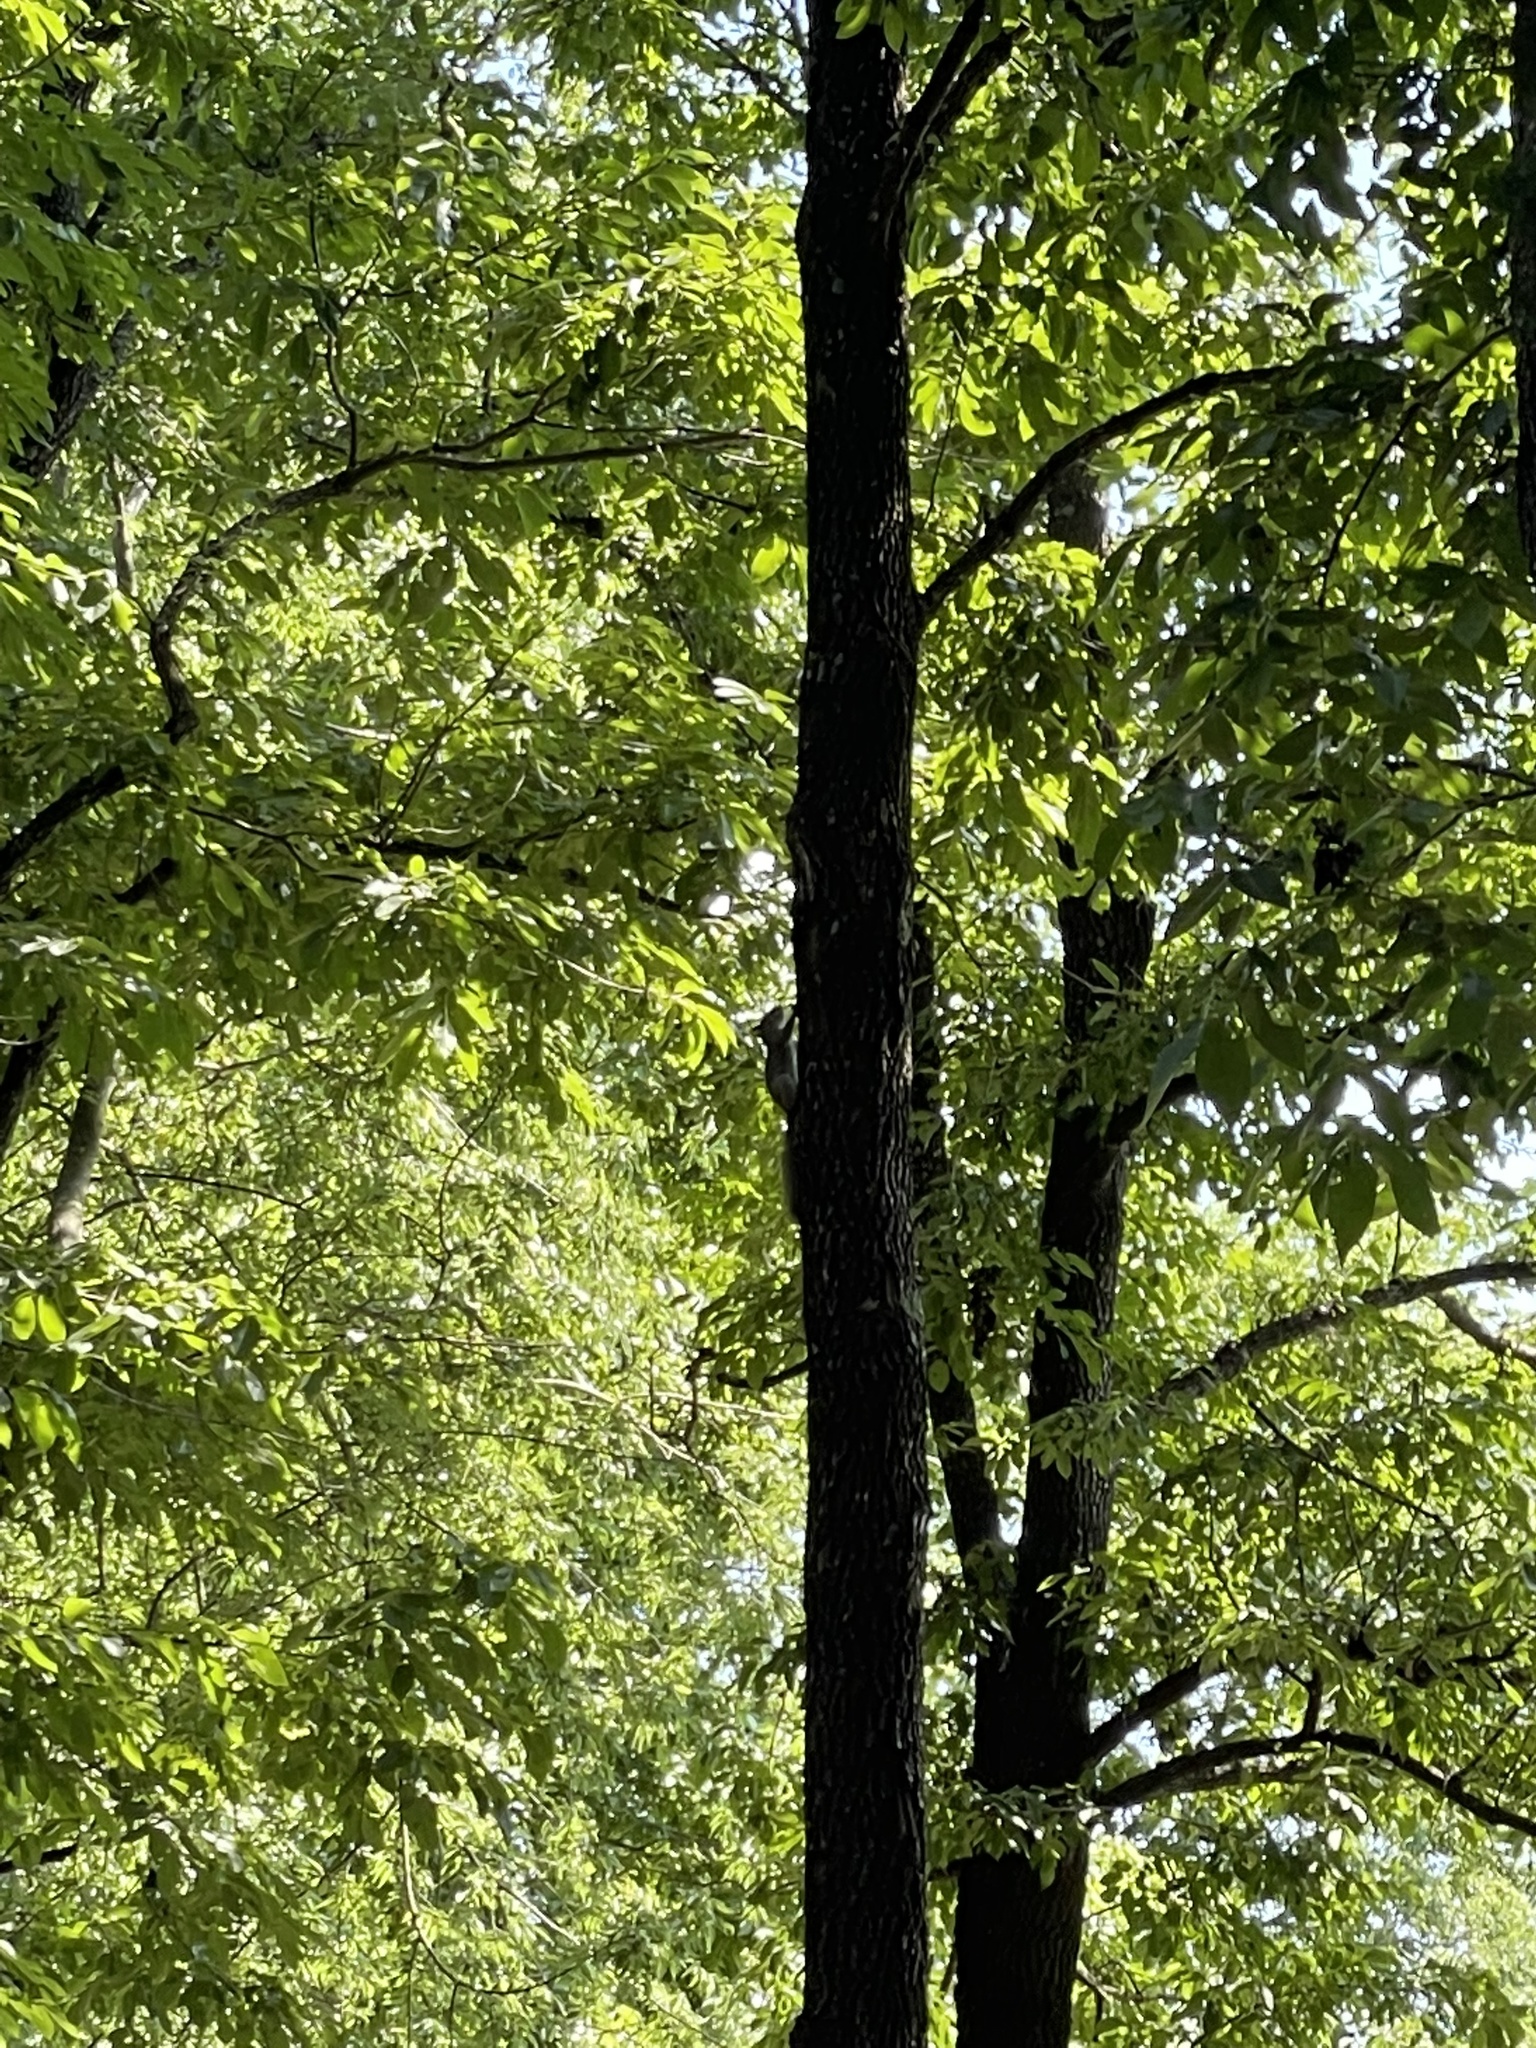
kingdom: Animalia
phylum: Chordata
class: Mammalia
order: Rodentia
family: Sciuridae
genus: Sciurus
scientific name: Sciurus niger
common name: Fox squirrel
